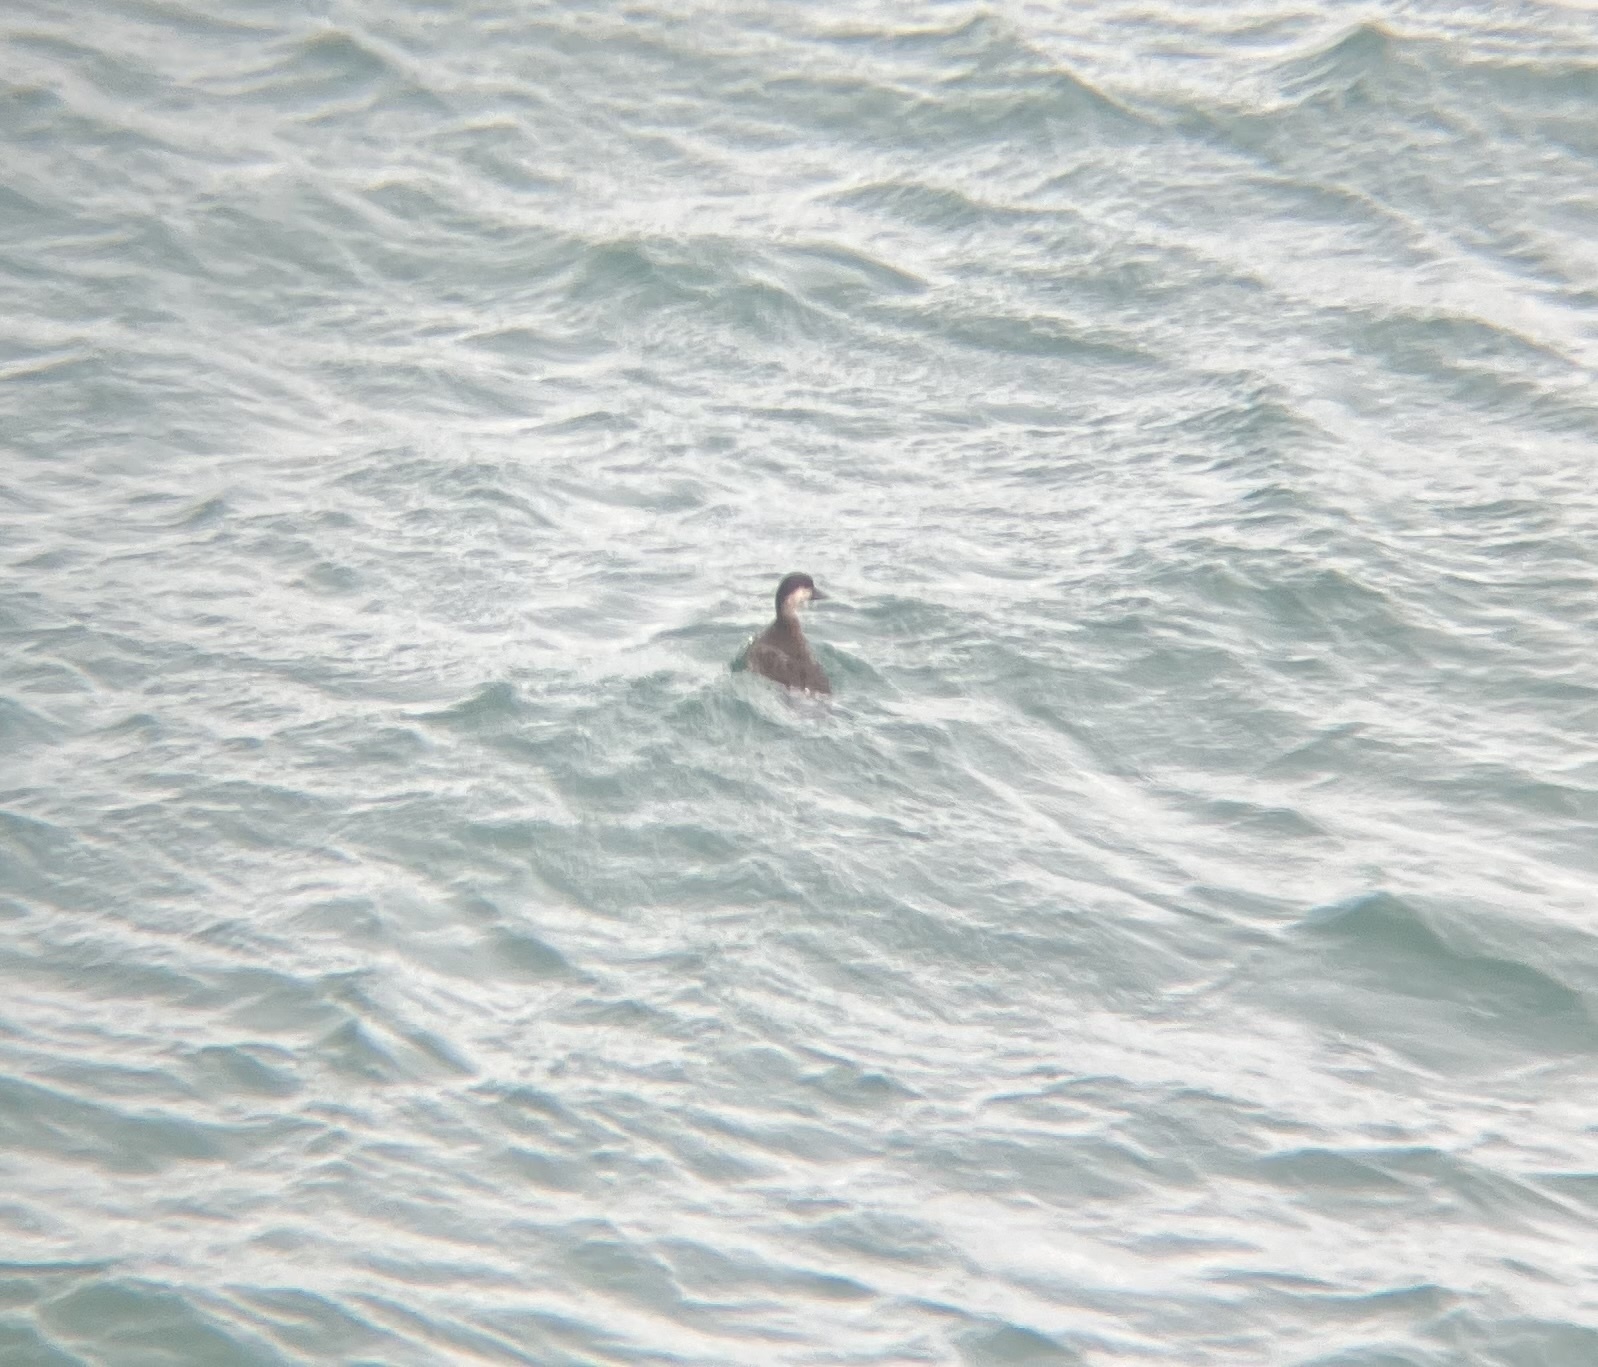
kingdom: Animalia
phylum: Chordata
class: Aves
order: Anseriformes
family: Anatidae
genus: Melanitta
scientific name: Melanitta americana
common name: Black scoter
